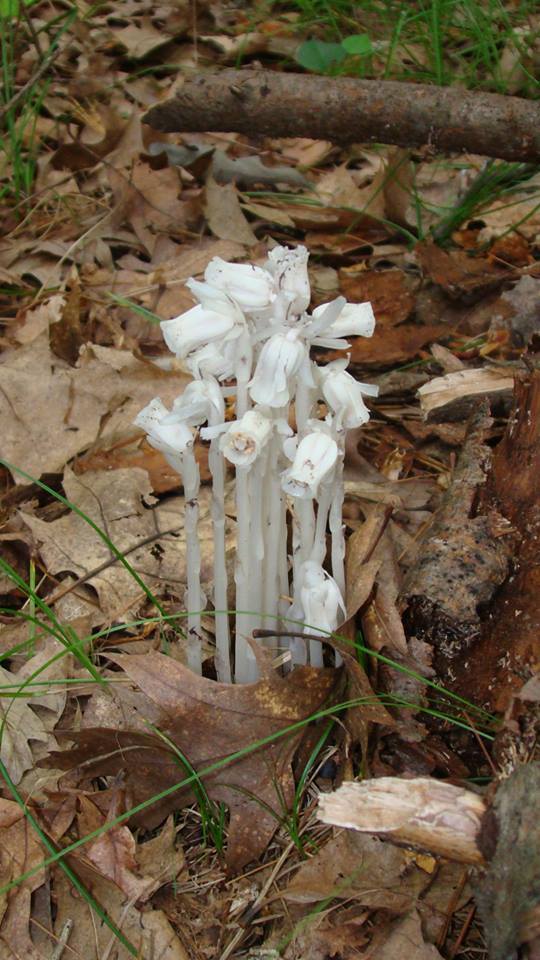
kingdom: Plantae
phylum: Tracheophyta
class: Magnoliopsida
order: Ericales
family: Ericaceae
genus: Monotropa
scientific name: Monotropa uniflora
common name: Convulsion root
